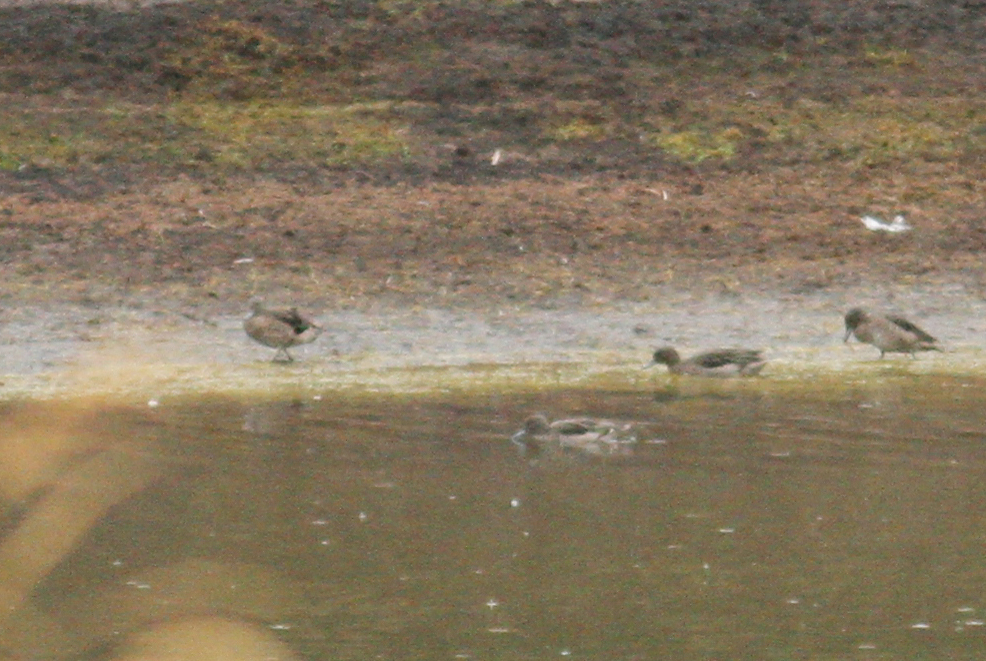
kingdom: Animalia
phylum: Chordata
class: Aves
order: Anseriformes
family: Anatidae
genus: Anas
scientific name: Anas andium
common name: Andean teal
